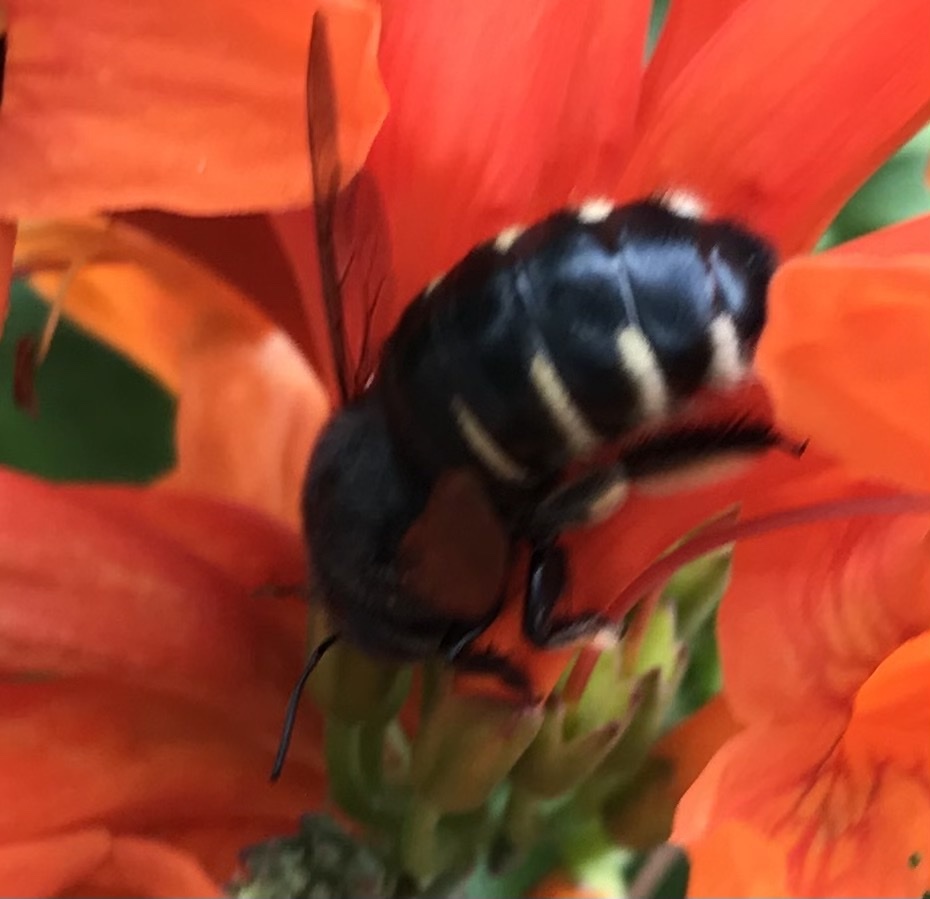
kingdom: Animalia
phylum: Arthropoda
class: Insecta
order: Hymenoptera
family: Apidae
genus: Xylocopa
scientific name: Xylocopa tabaniformis
